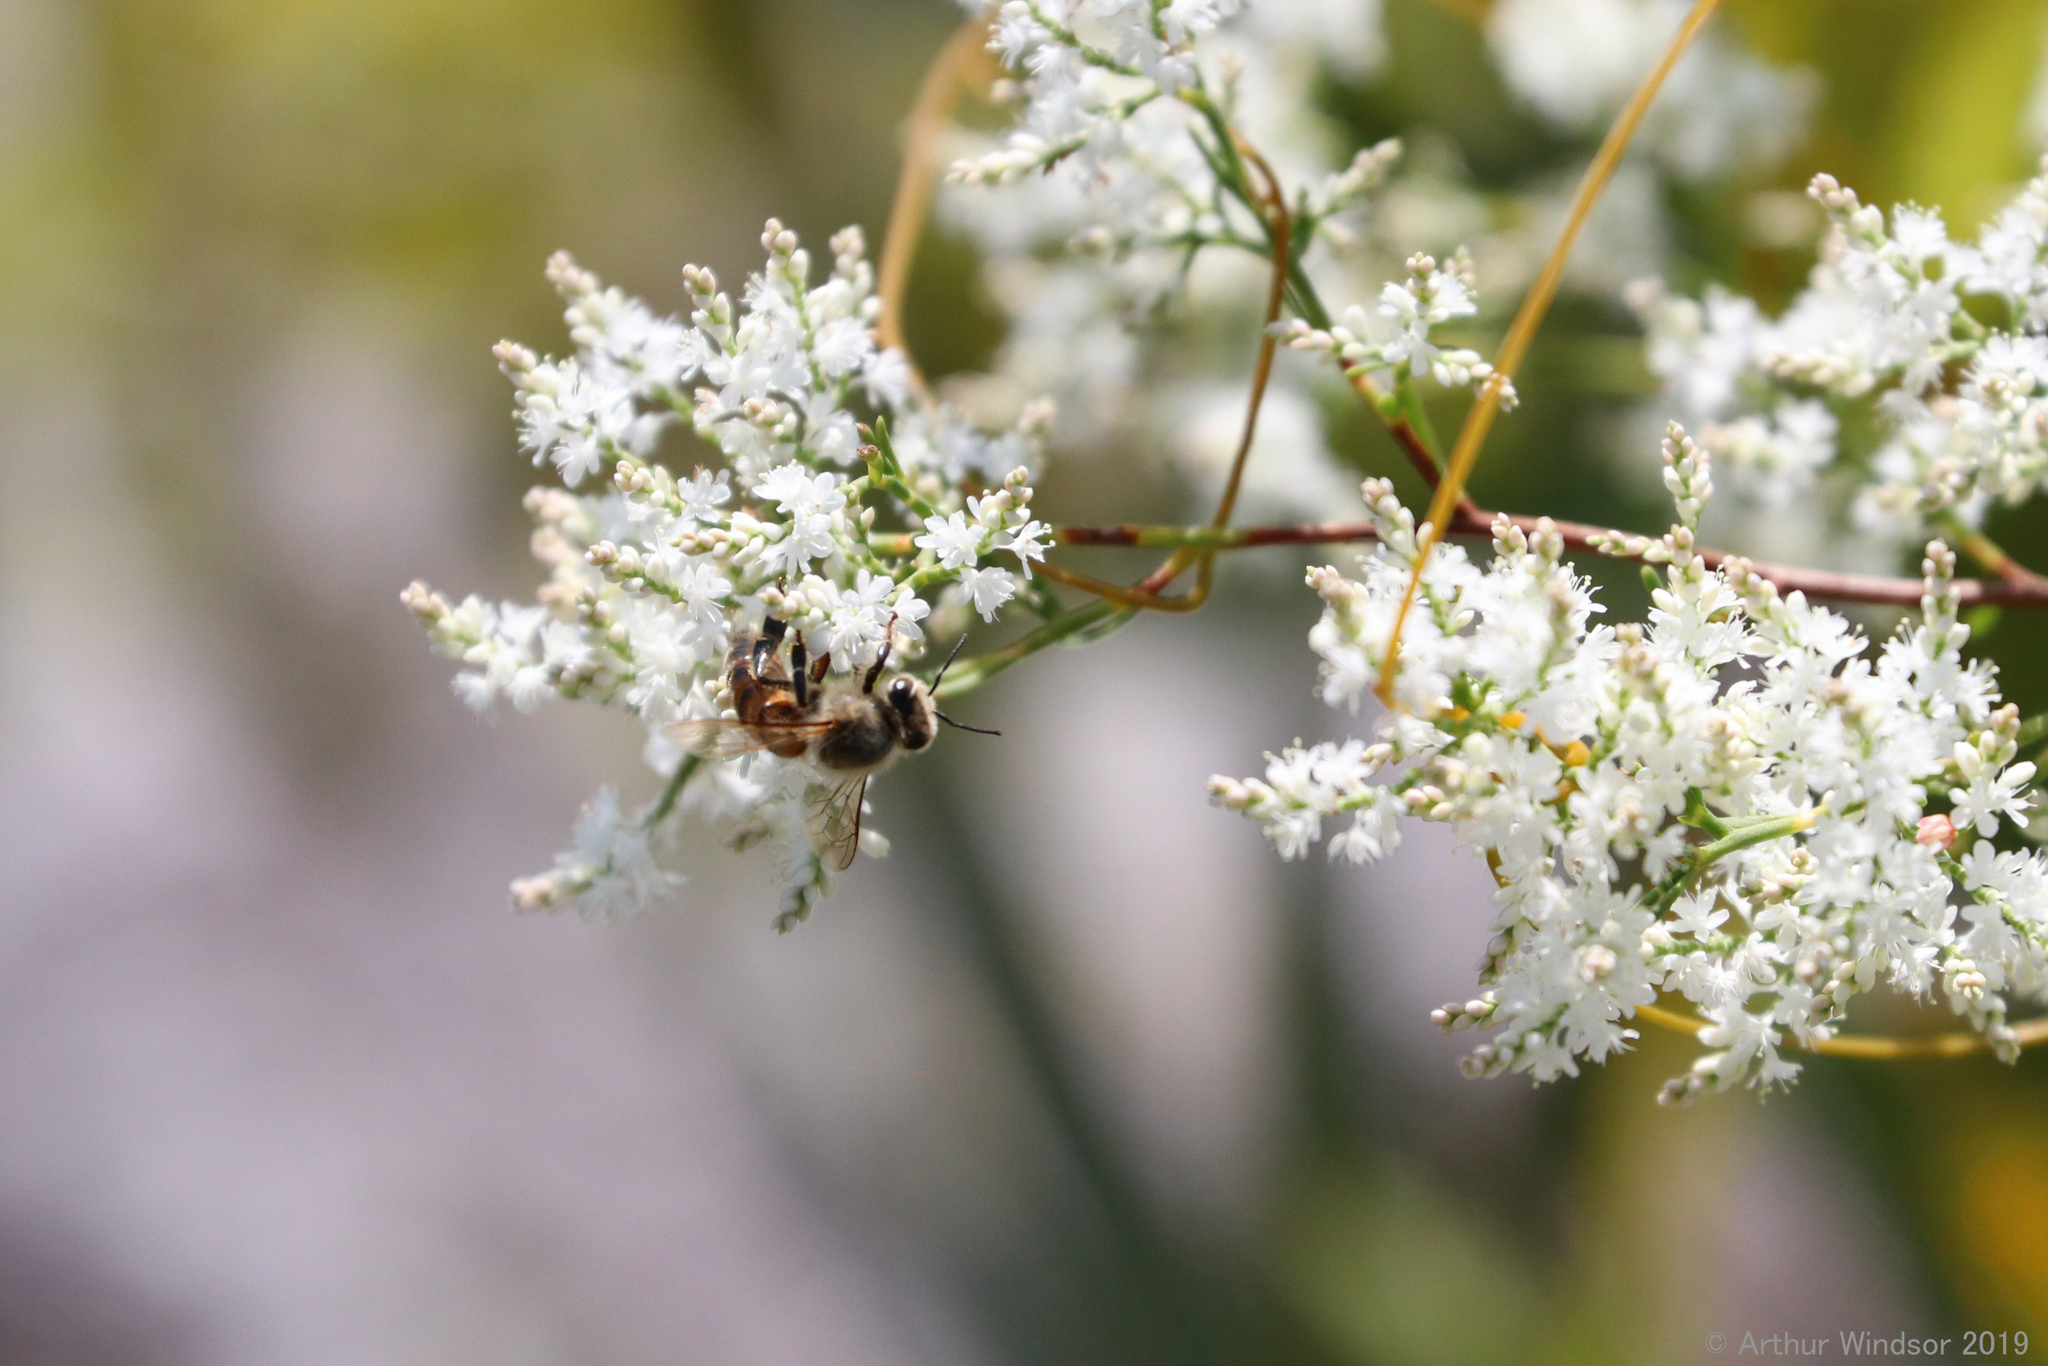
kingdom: Animalia
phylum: Arthropoda
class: Insecta
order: Hymenoptera
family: Apidae
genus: Apis
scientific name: Apis mellifera
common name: Honey bee
